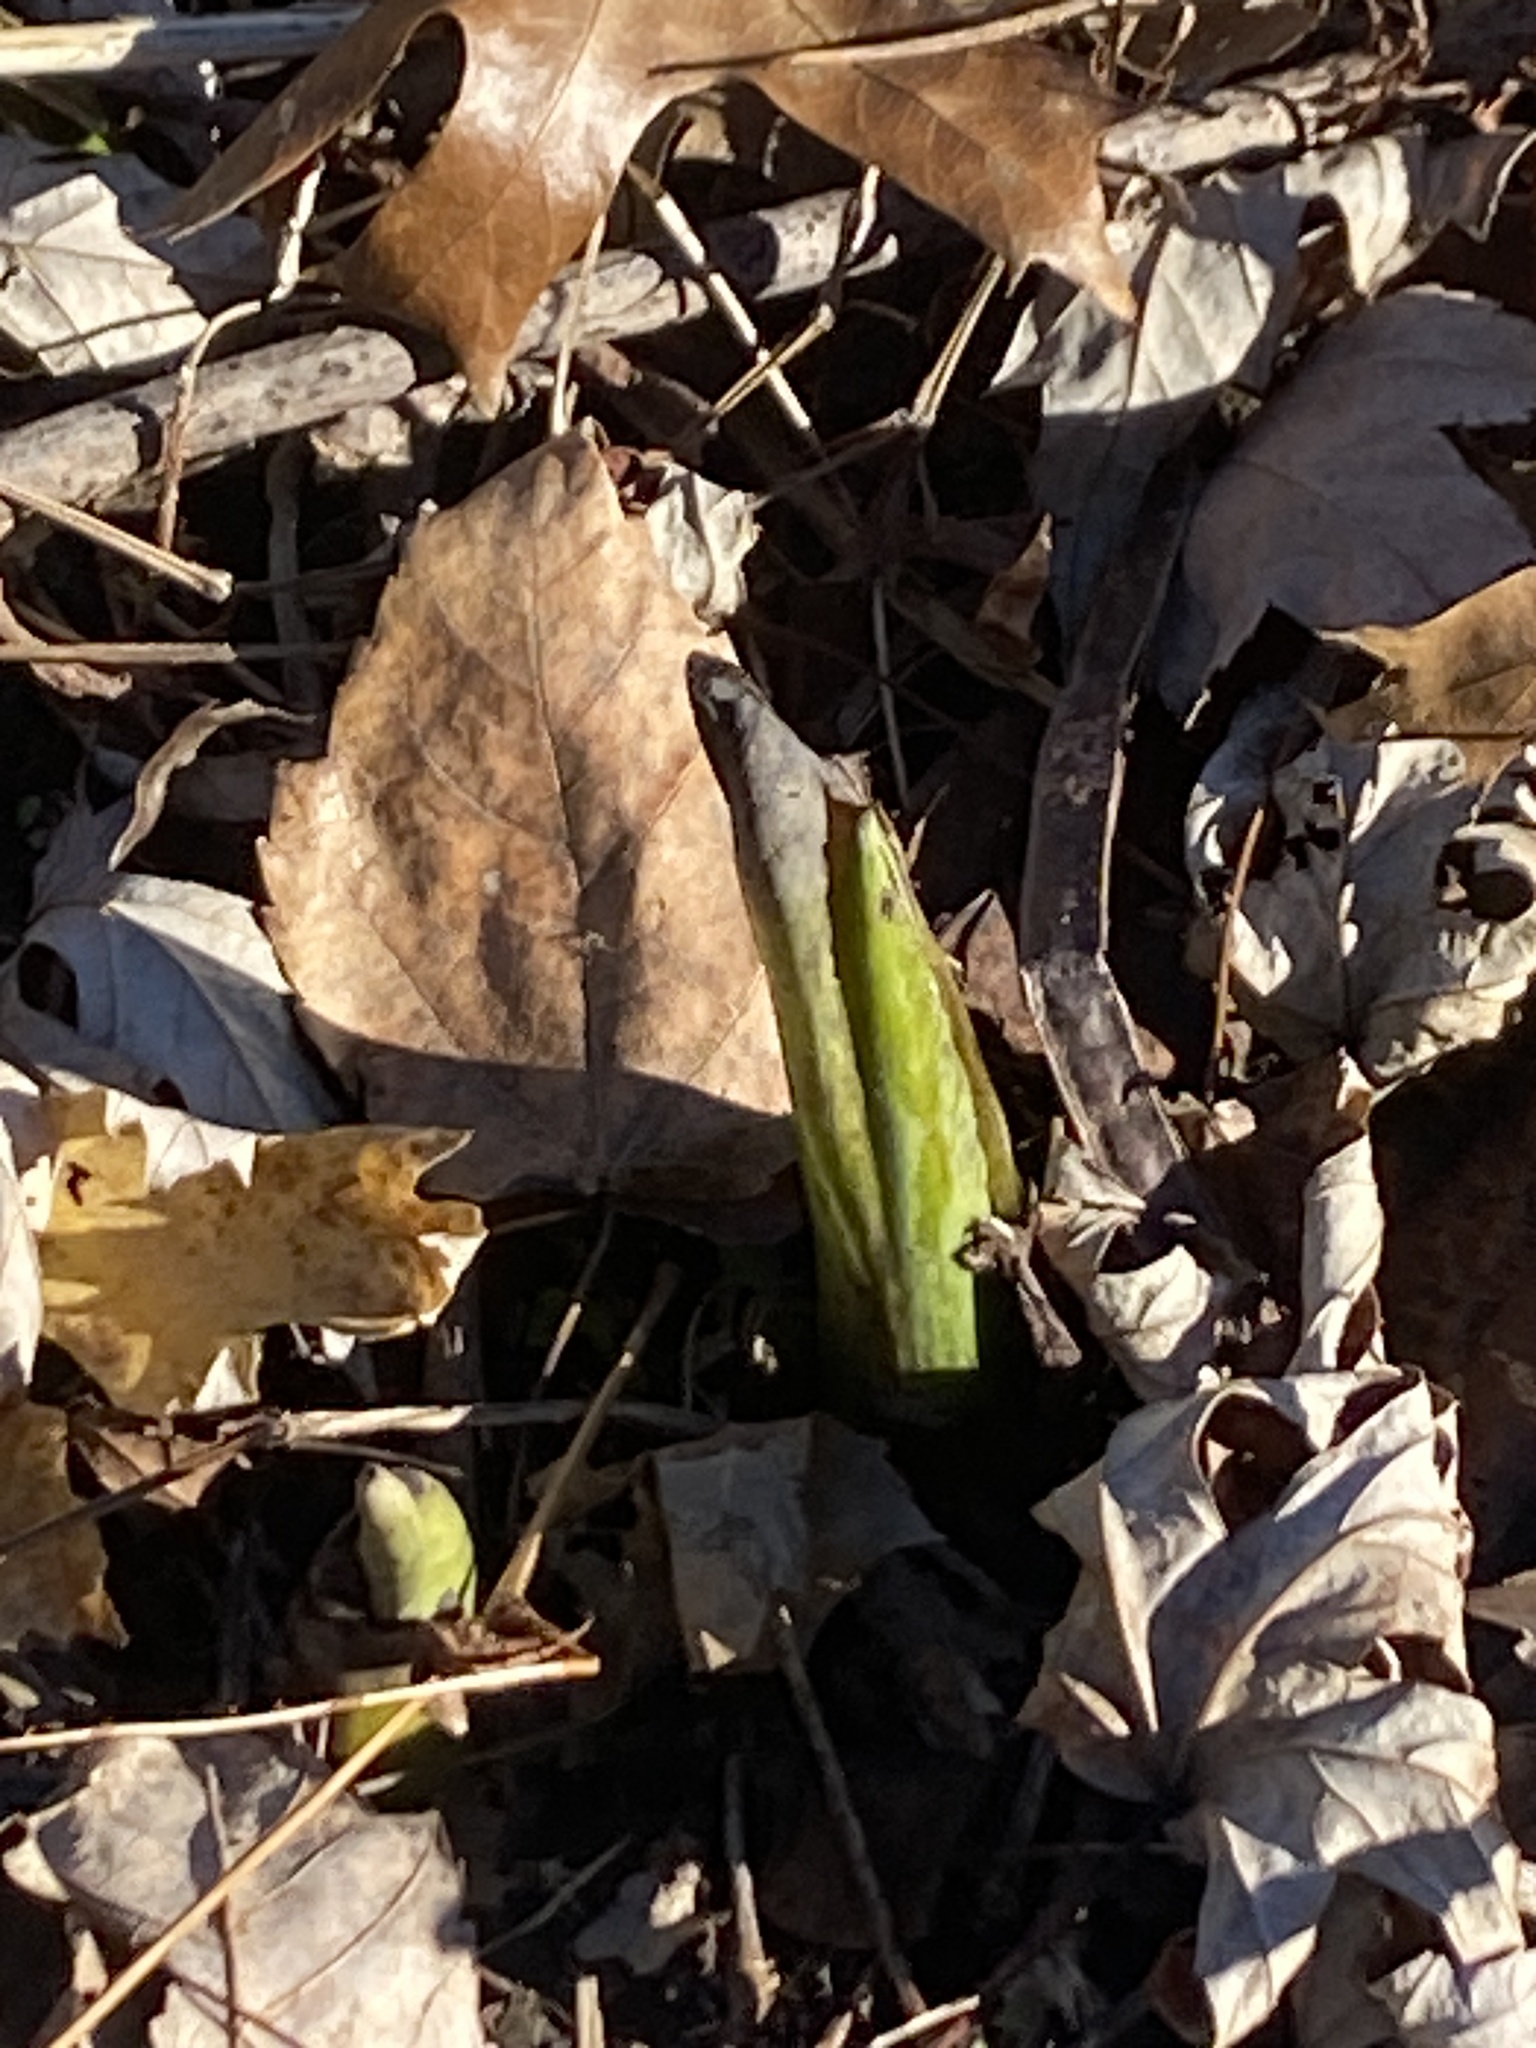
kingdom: Plantae
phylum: Tracheophyta
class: Liliopsida
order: Alismatales
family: Araceae
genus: Symplocarpus
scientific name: Symplocarpus foetidus
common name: Eastern skunk cabbage
